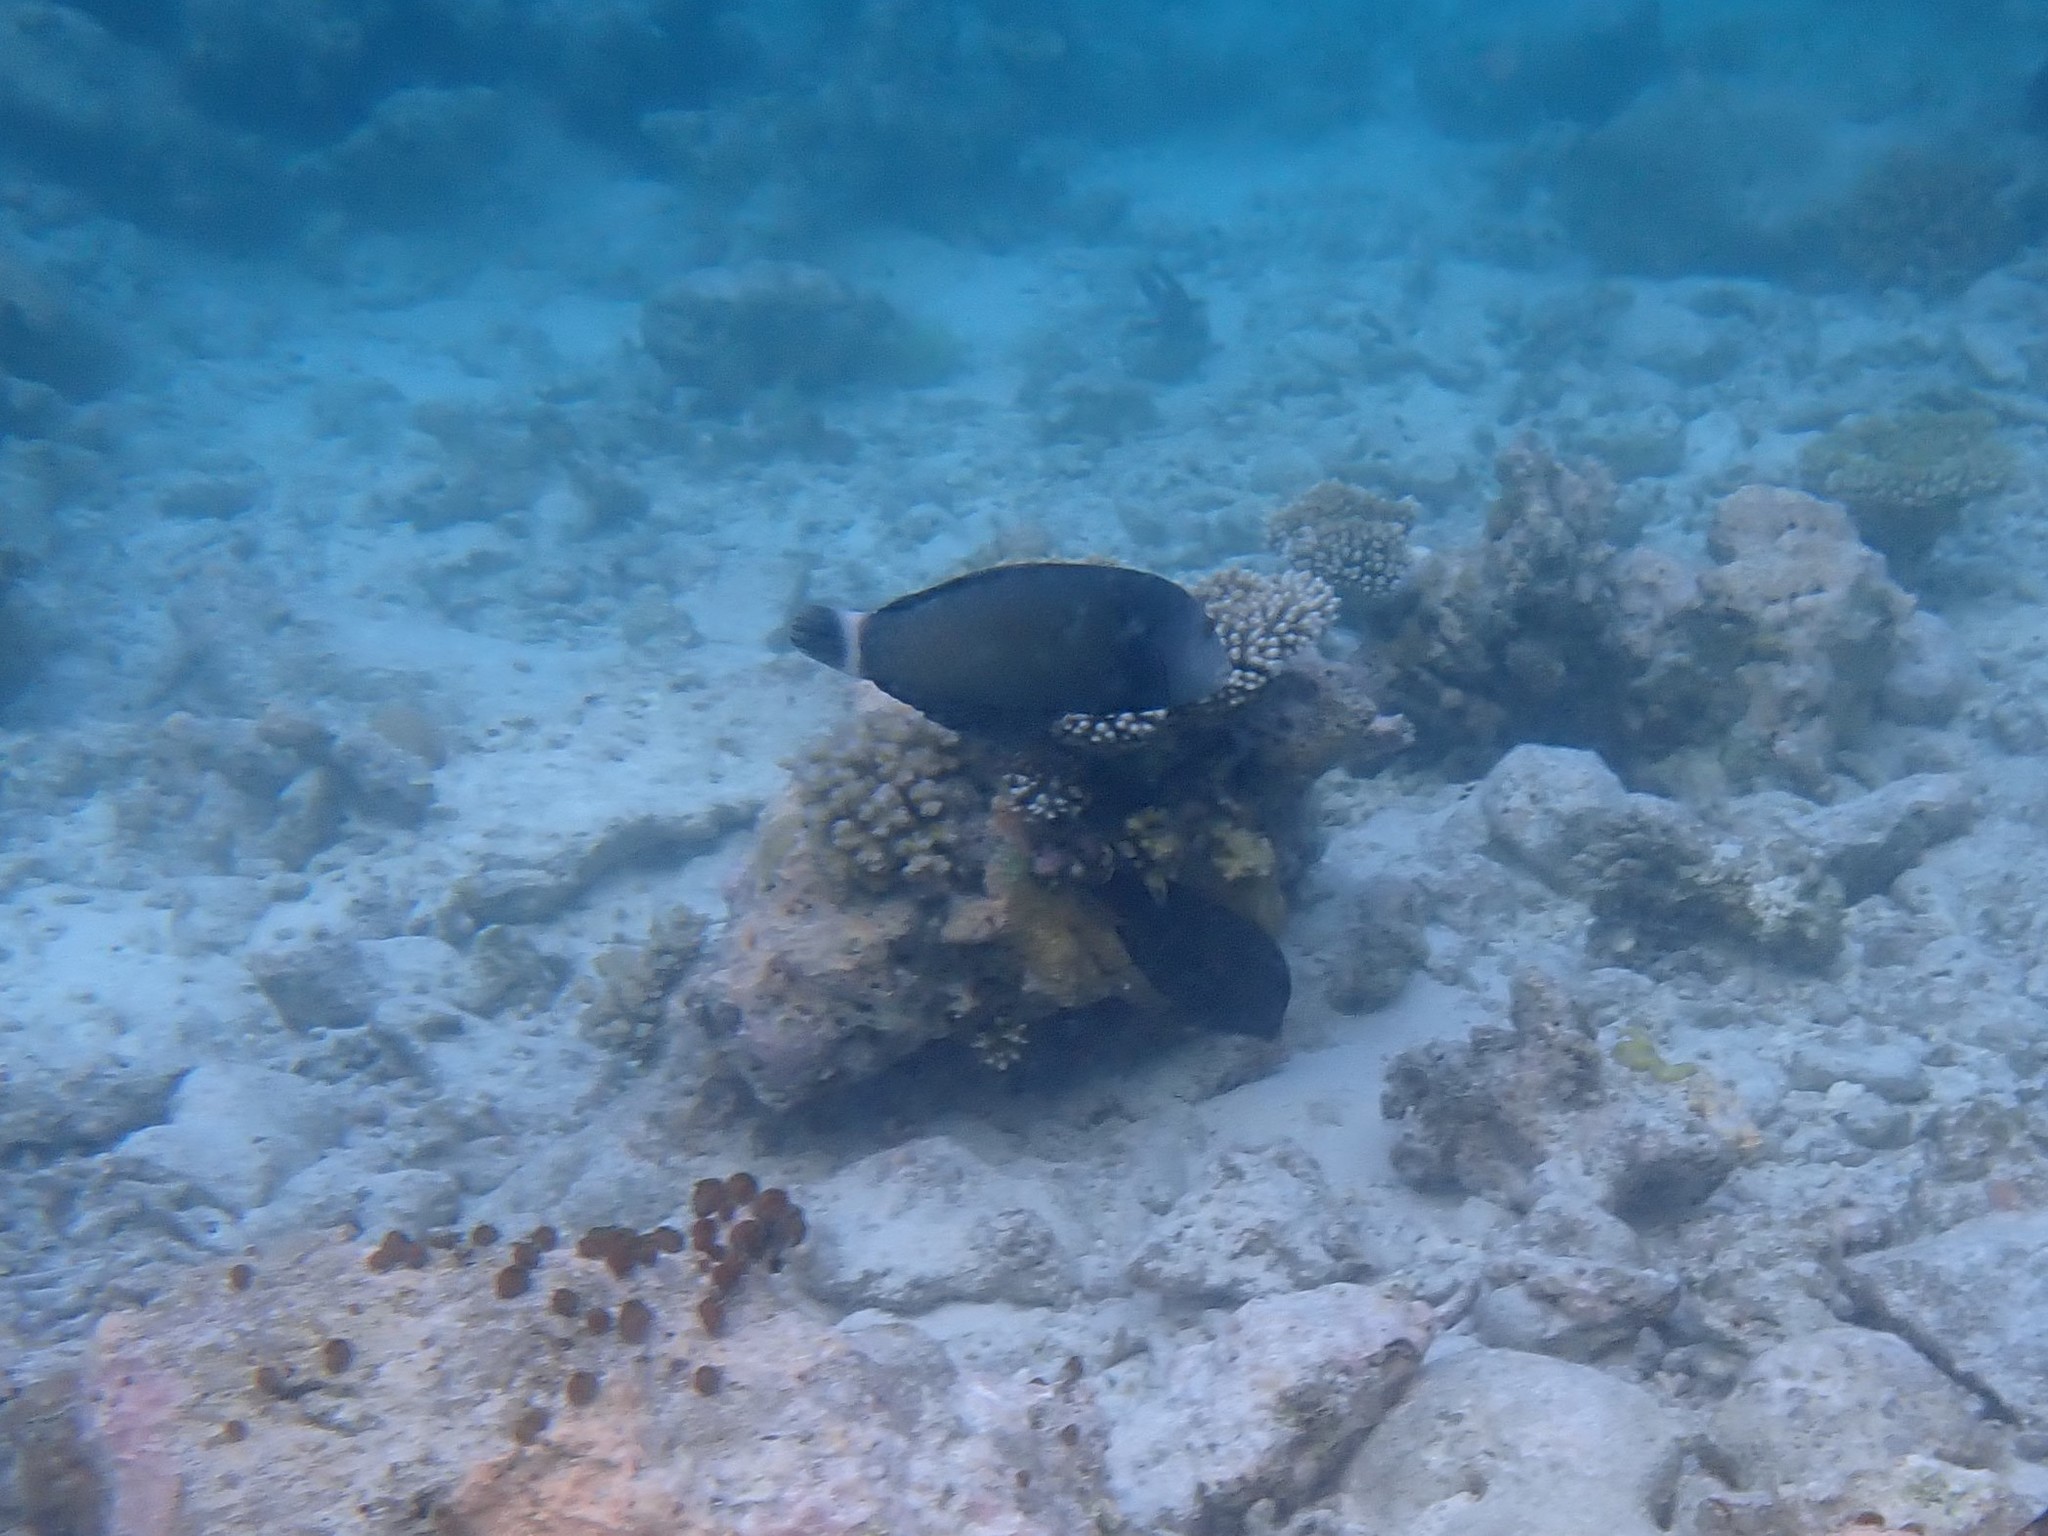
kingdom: Animalia
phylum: Chordata
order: Perciformes
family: Labridae
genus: Novaculichthys
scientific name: Novaculichthys taeniourus
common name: Rockmover wrasse
